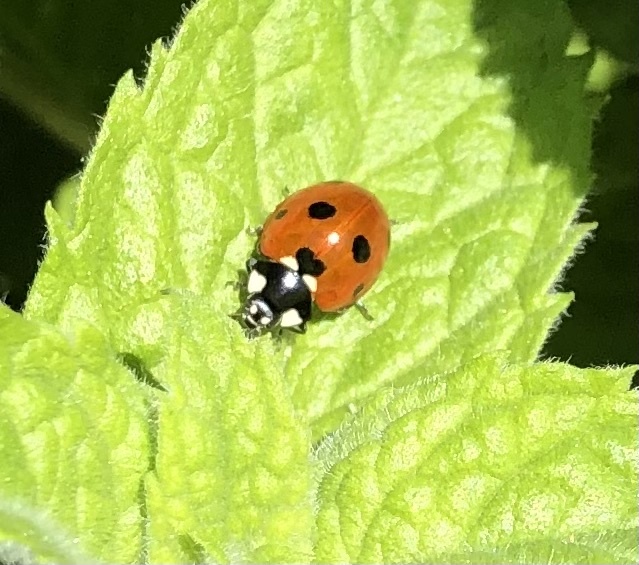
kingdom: Animalia
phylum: Arthropoda
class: Insecta
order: Coleoptera
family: Coccinellidae
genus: Coccinella
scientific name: Coccinella septempunctata
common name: Sevenspotted lady beetle
